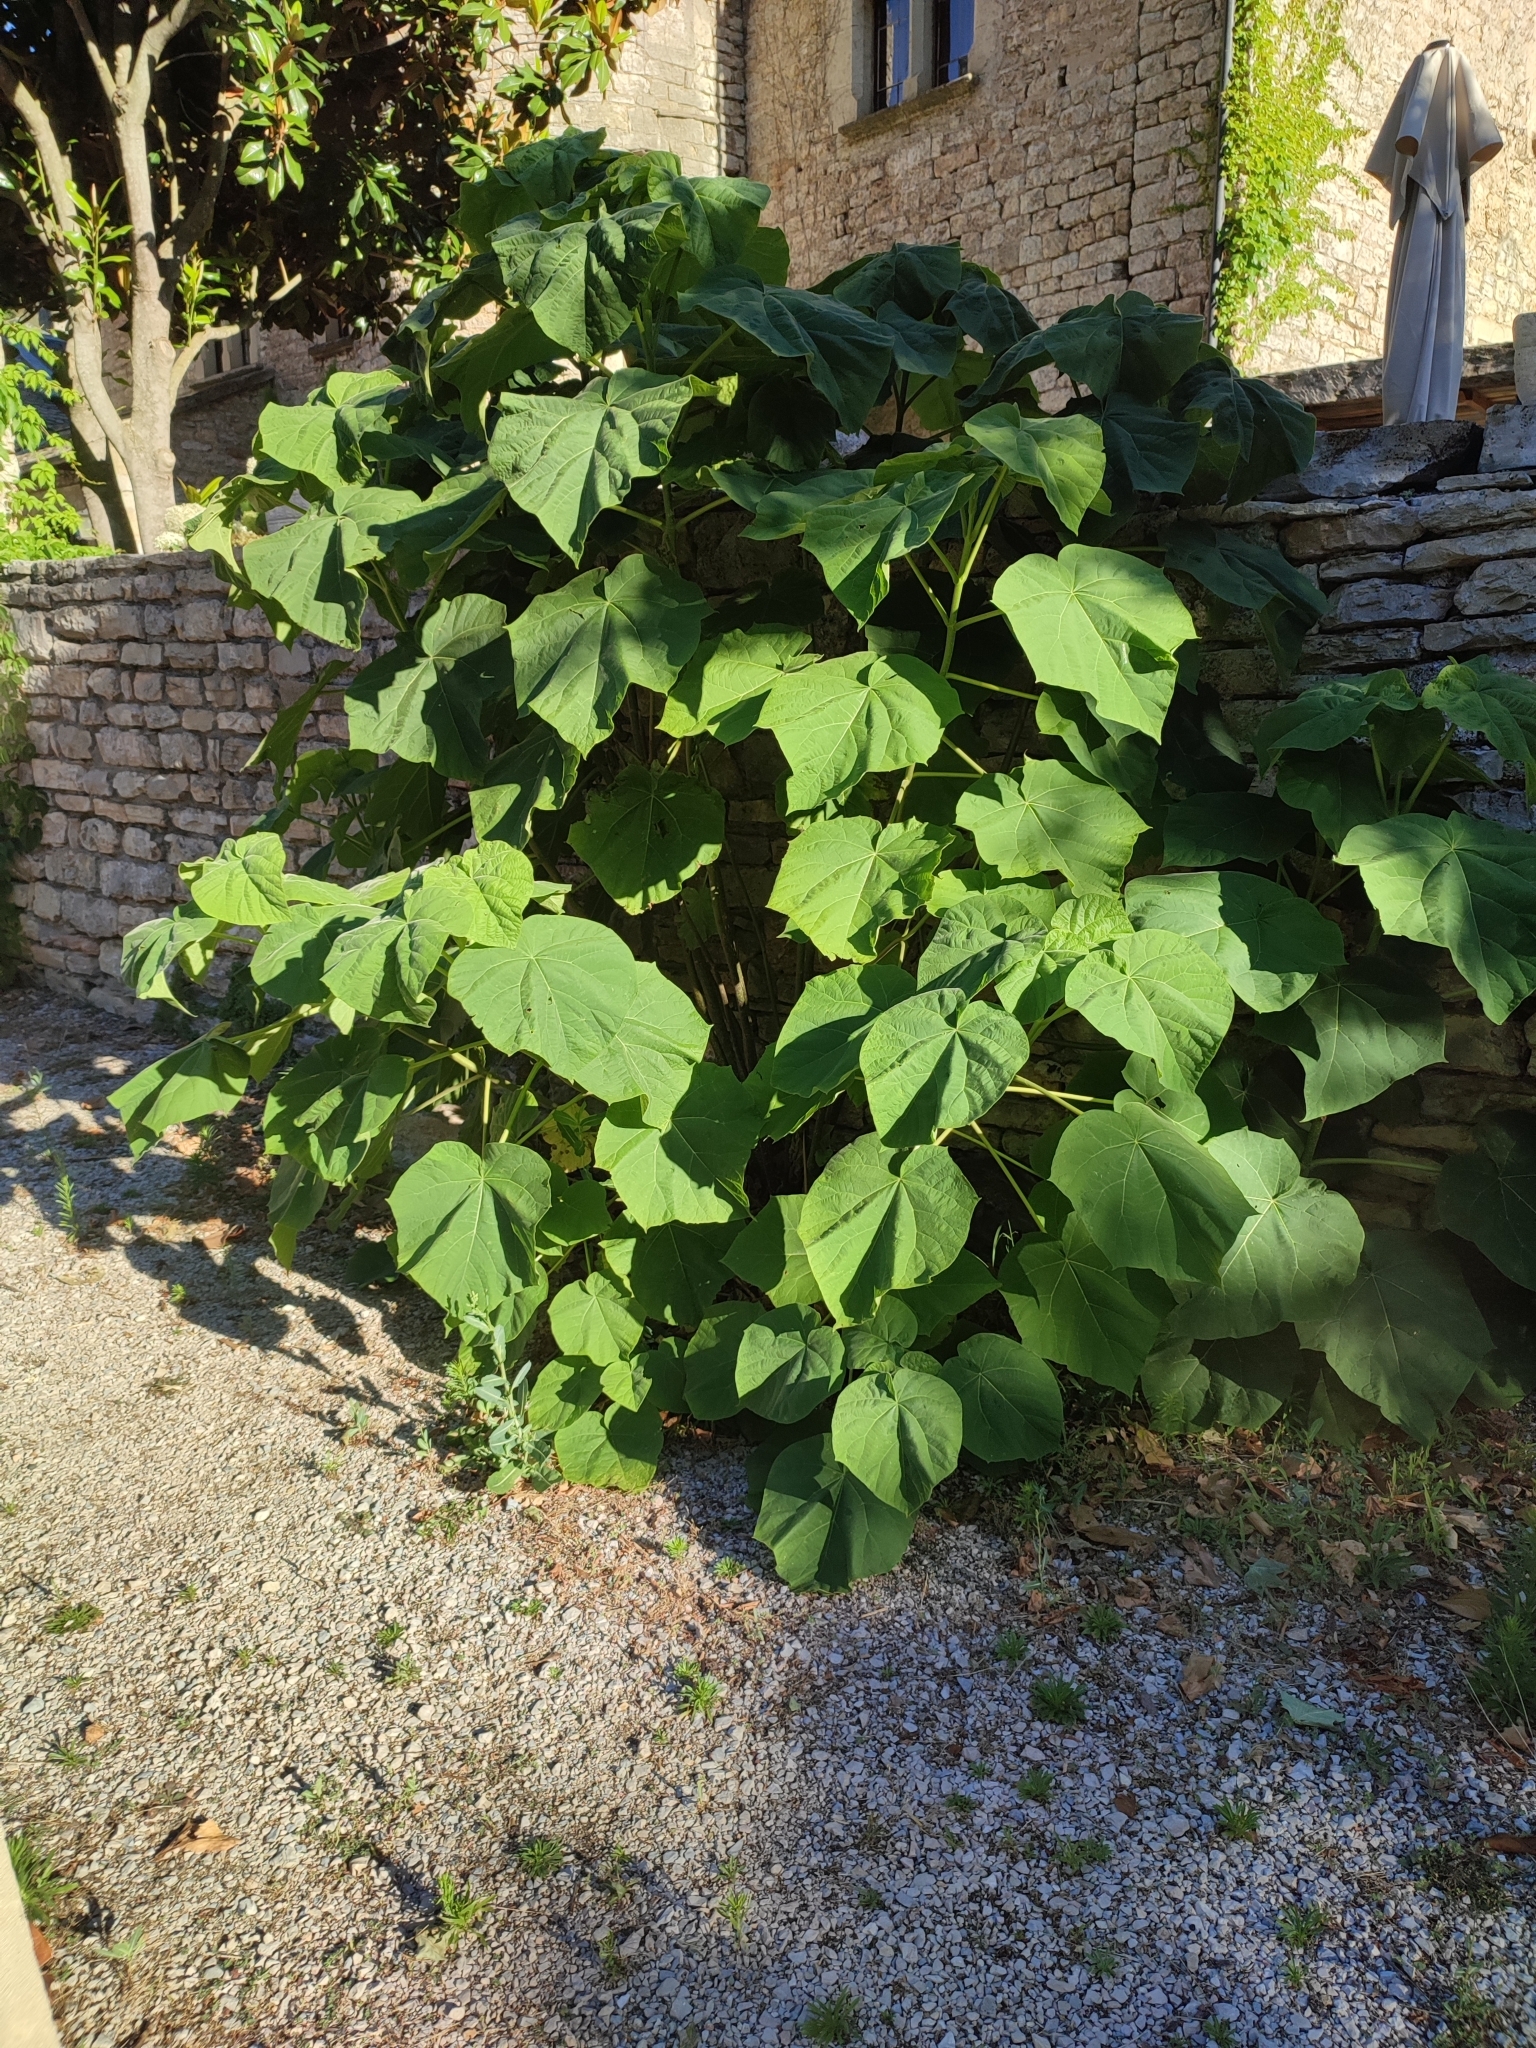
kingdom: Plantae
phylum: Tracheophyta
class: Magnoliopsida
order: Lamiales
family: Paulowniaceae
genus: Paulownia
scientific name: Paulownia tomentosa
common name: Foxglove-tree
